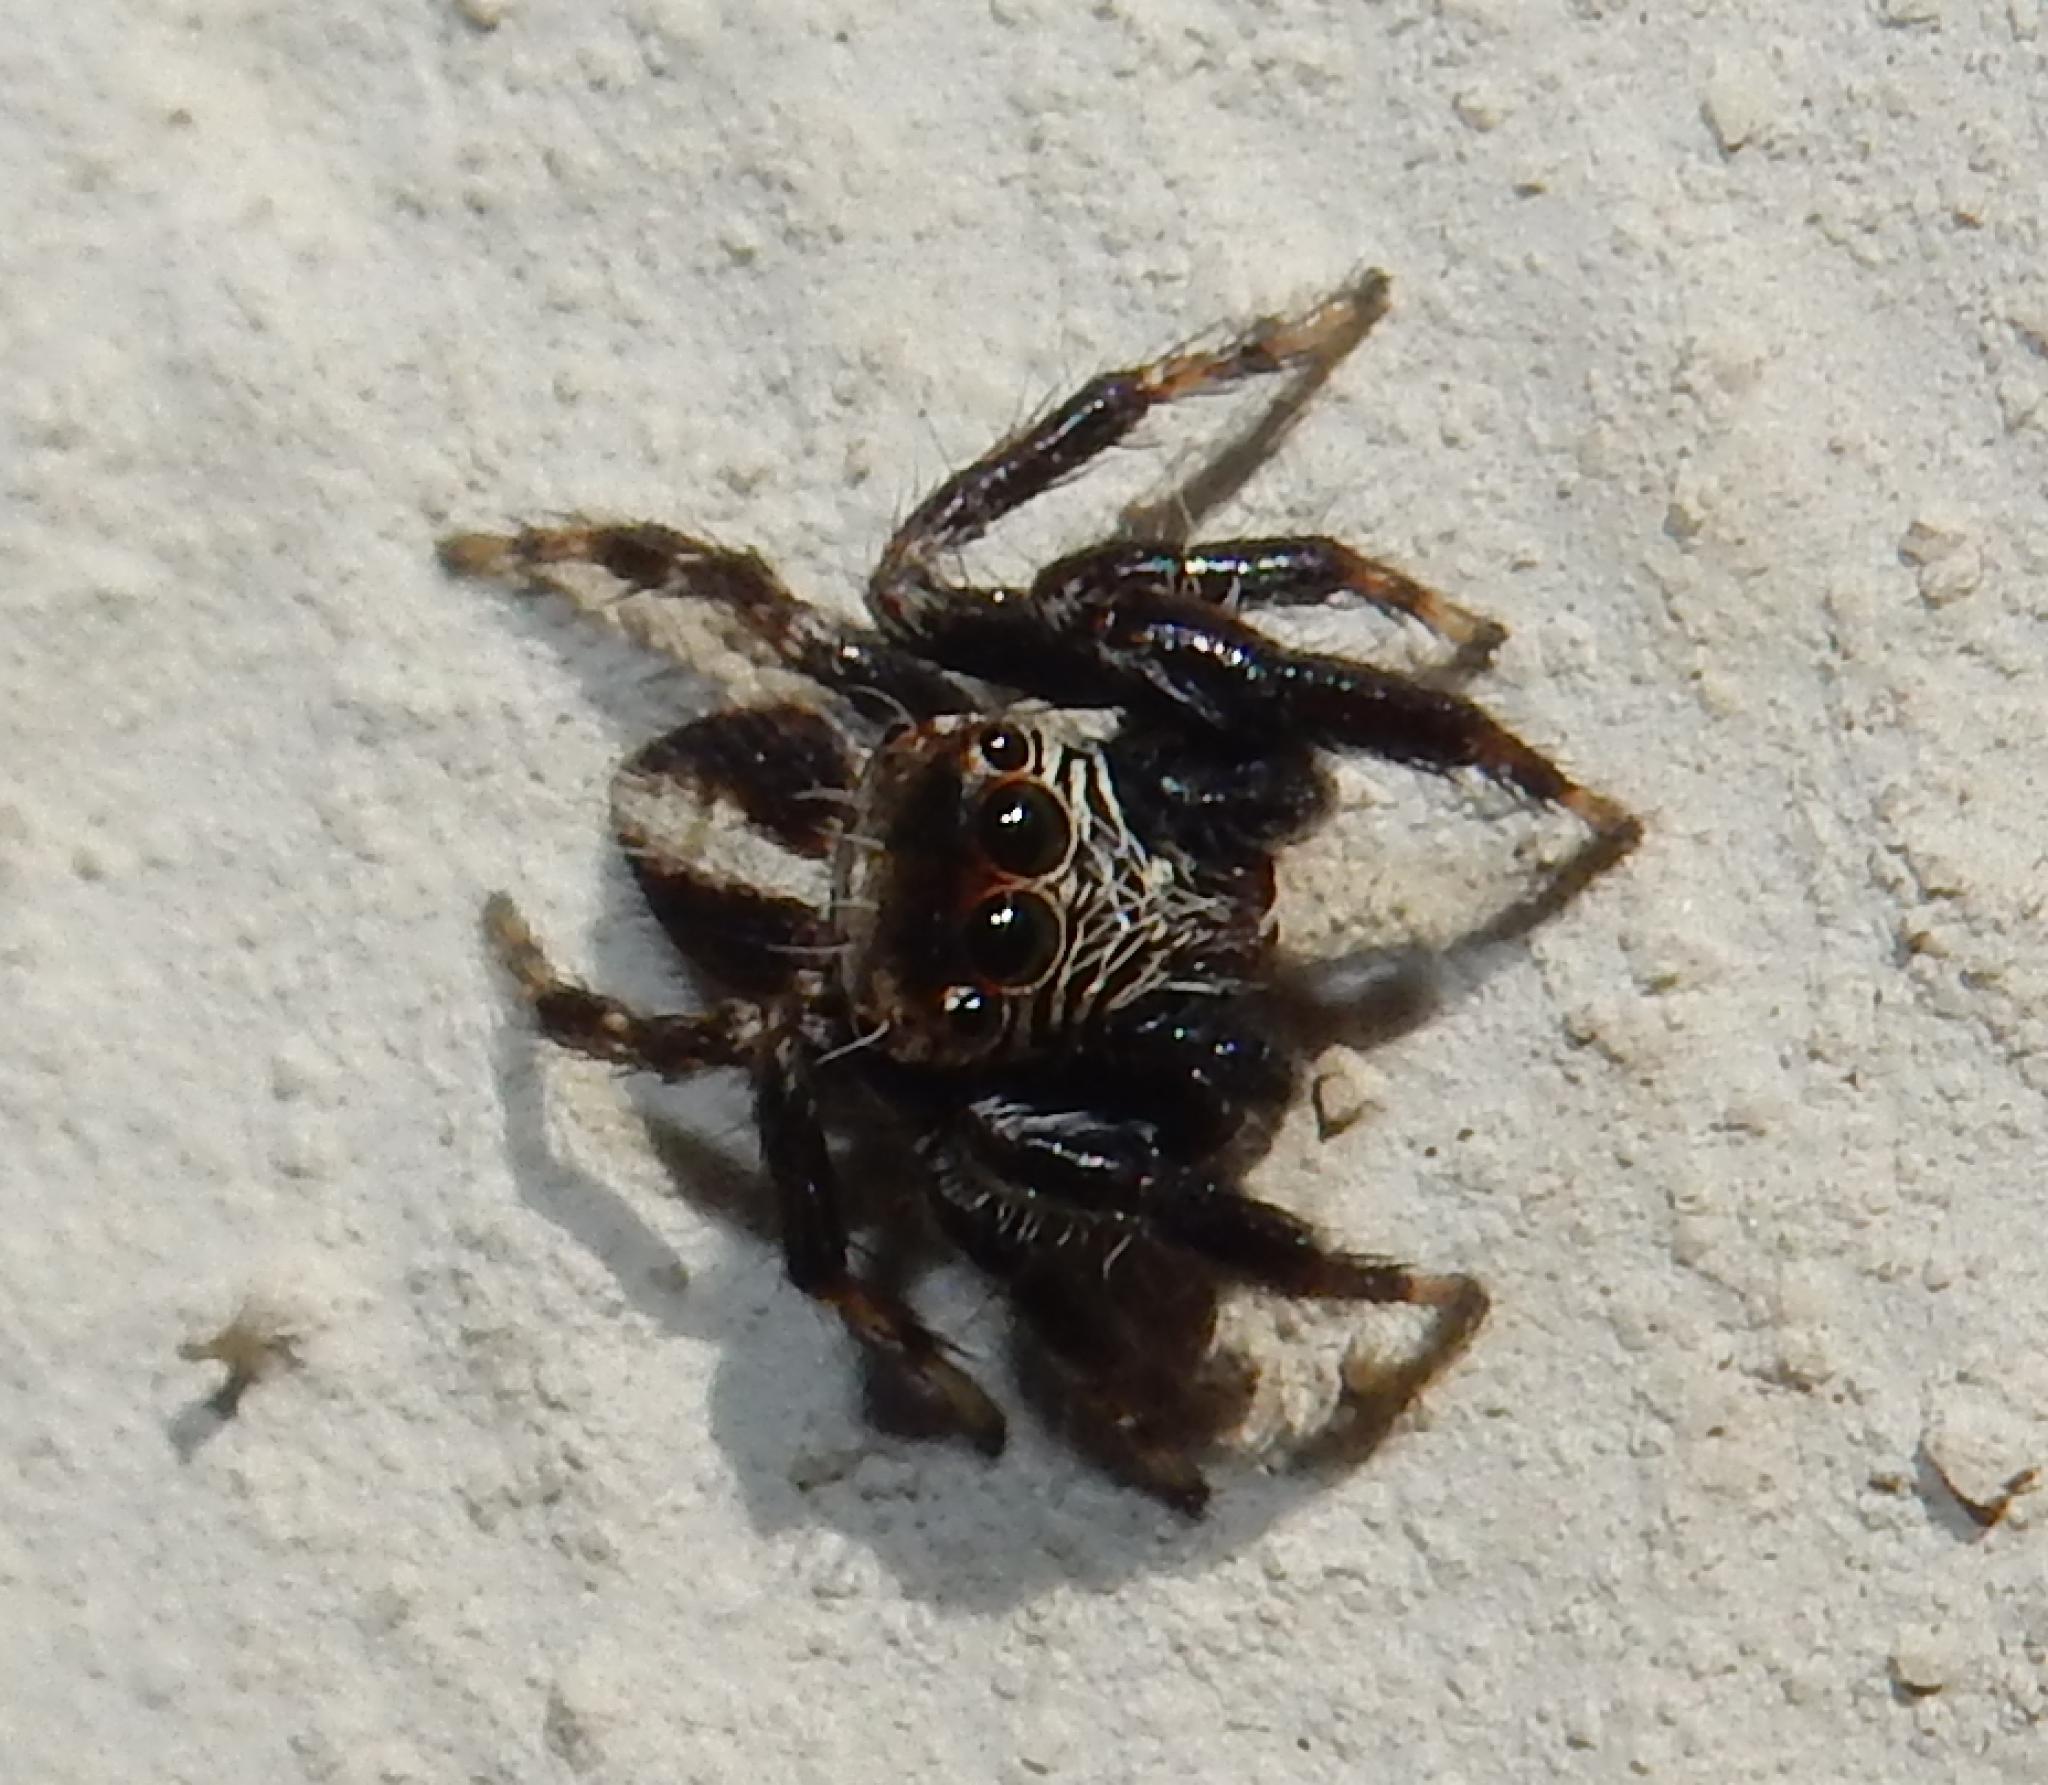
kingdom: Animalia
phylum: Arthropoda
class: Arachnida
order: Araneae
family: Salticidae
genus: Evarcha
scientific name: Evarcha denticulata
